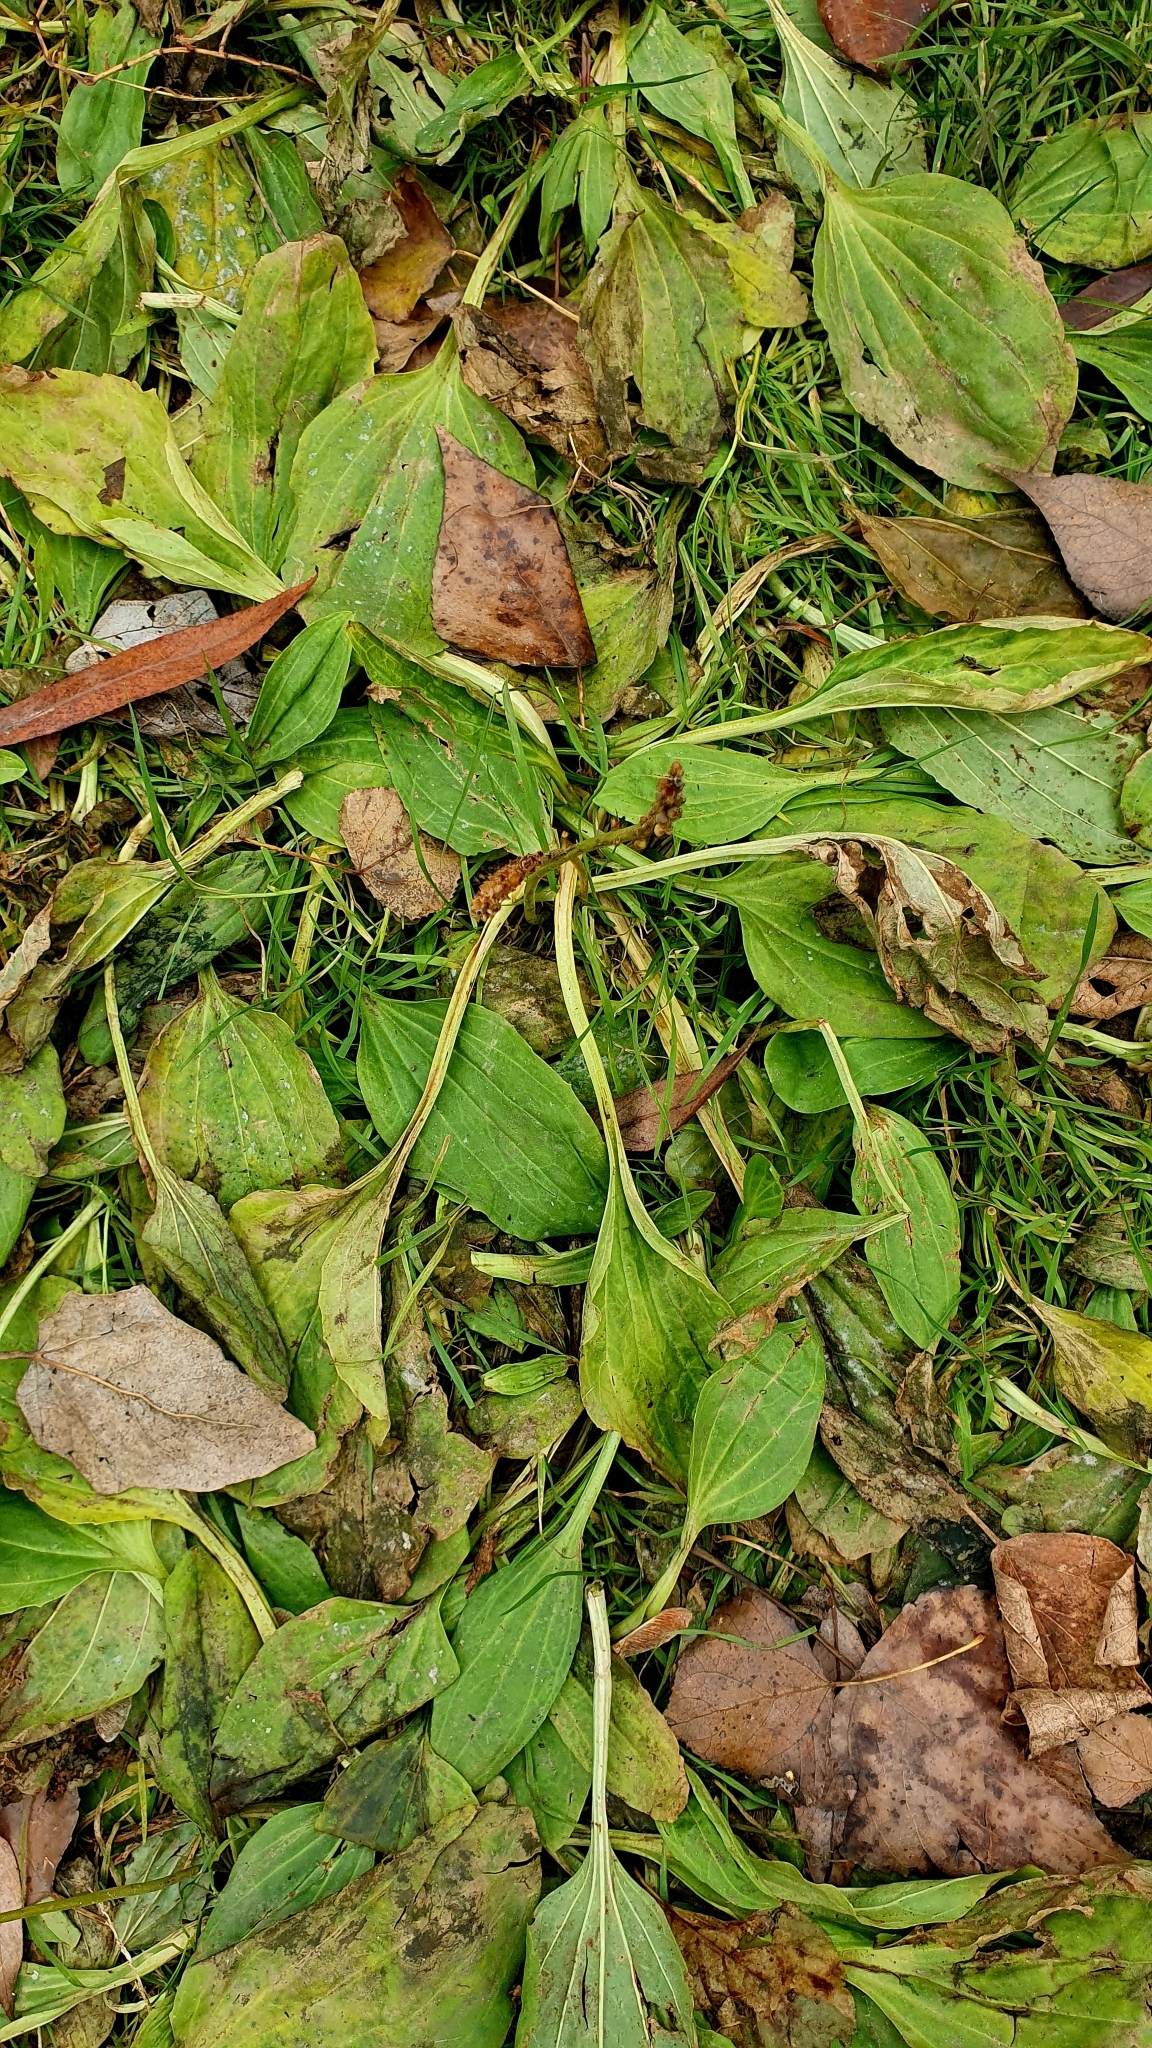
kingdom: Plantae
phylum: Tracheophyta
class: Magnoliopsida
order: Lamiales
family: Plantaginaceae
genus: Plantago
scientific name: Plantago major
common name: Common plantain
